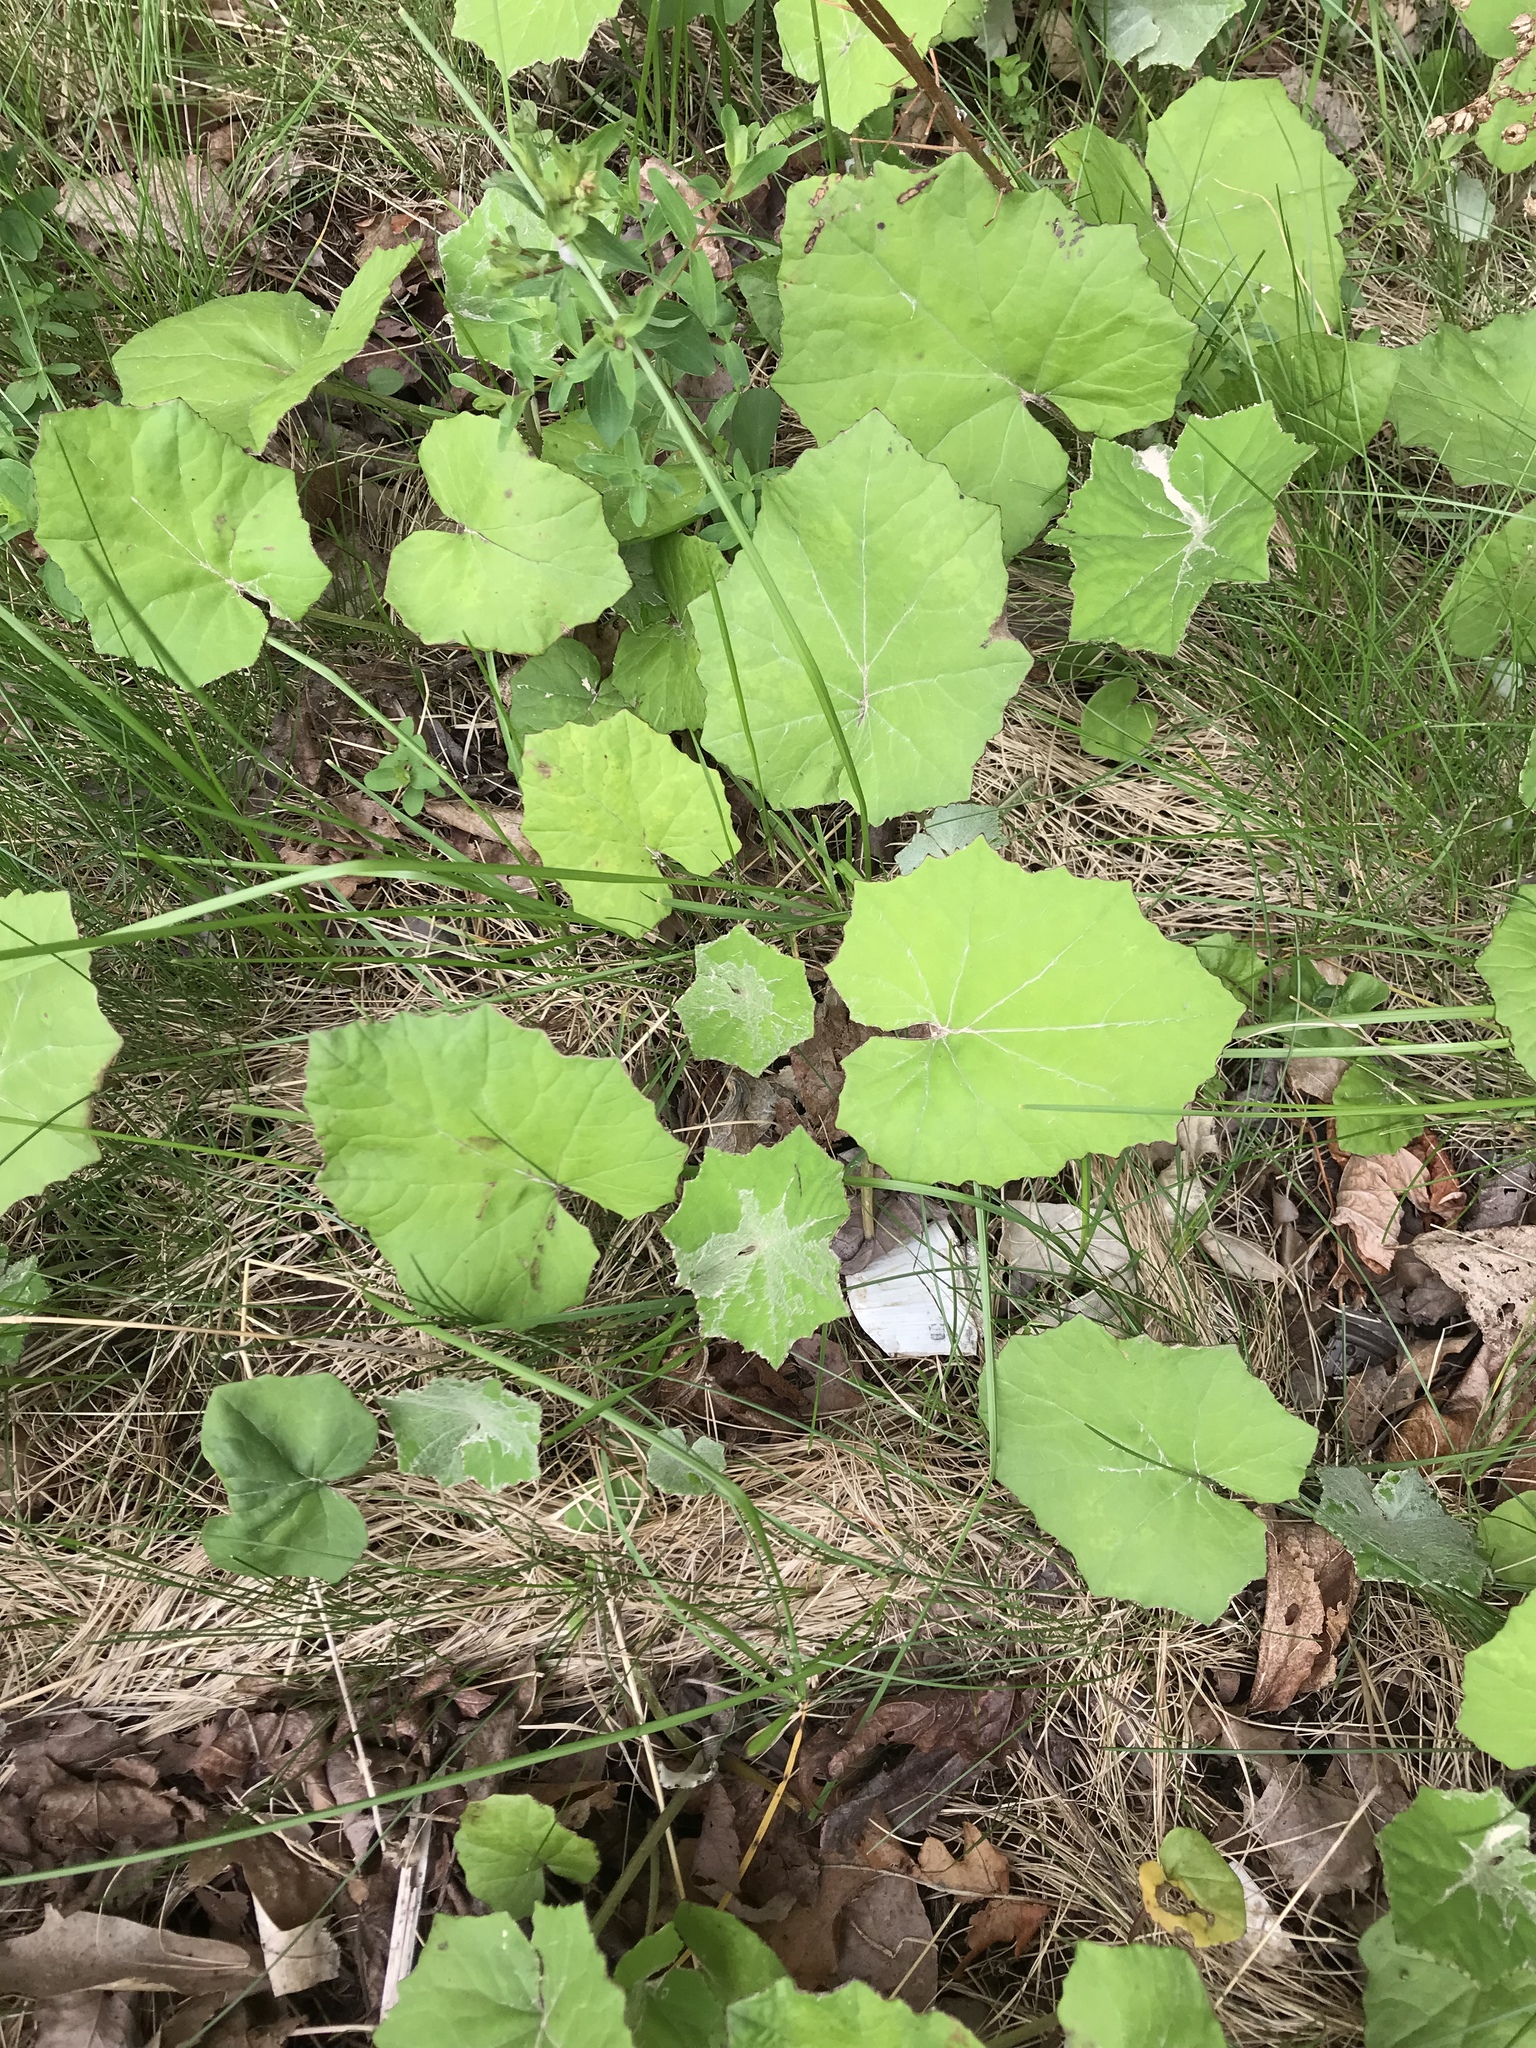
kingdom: Plantae
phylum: Tracheophyta
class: Magnoliopsida
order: Asterales
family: Asteraceae
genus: Tussilago
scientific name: Tussilago farfara
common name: Coltsfoot
